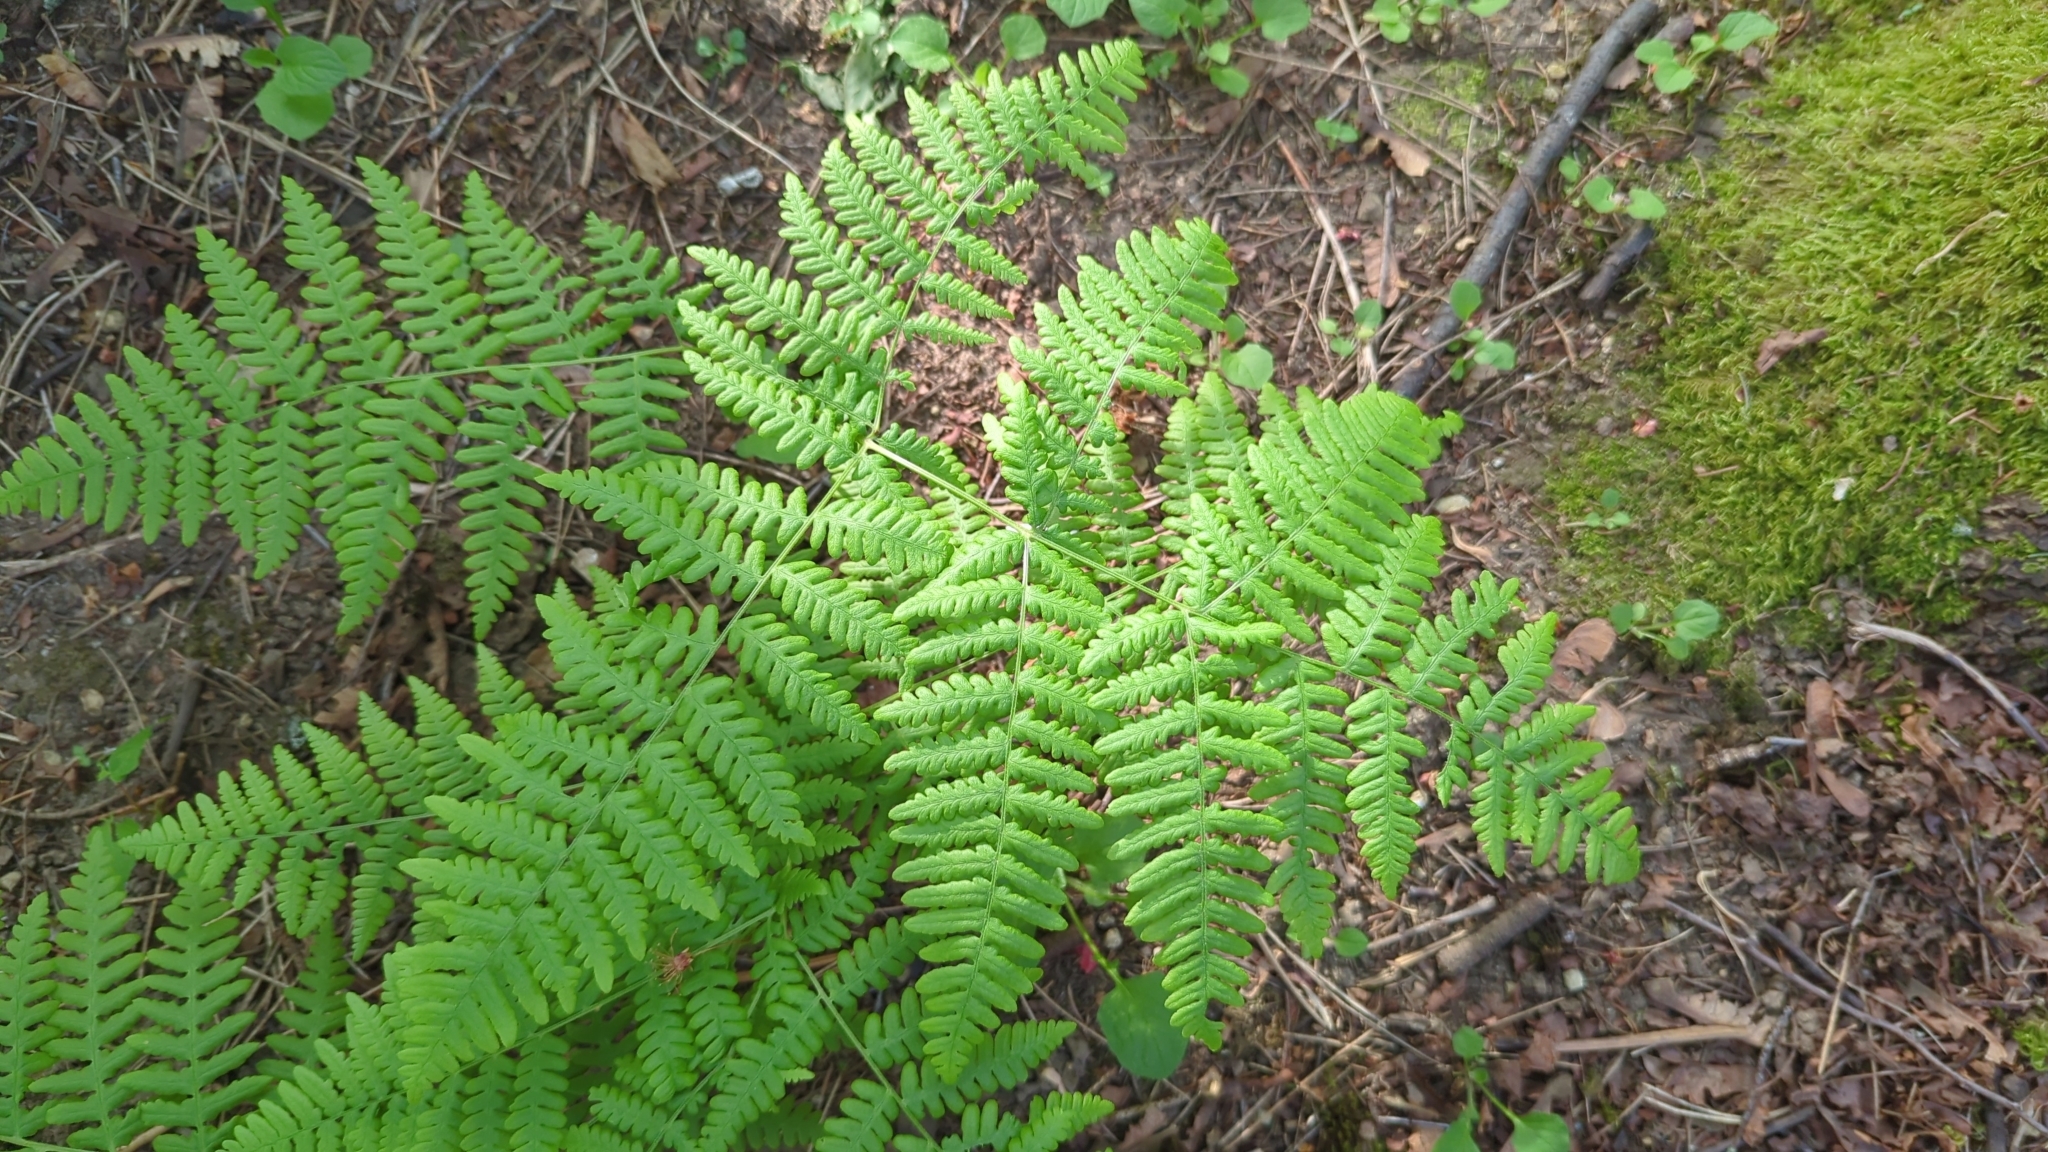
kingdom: Plantae
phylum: Tracheophyta
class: Polypodiopsida
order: Polypodiales
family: Dennstaedtiaceae
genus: Pteridium
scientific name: Pteridium aquilinum
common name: Bracken
